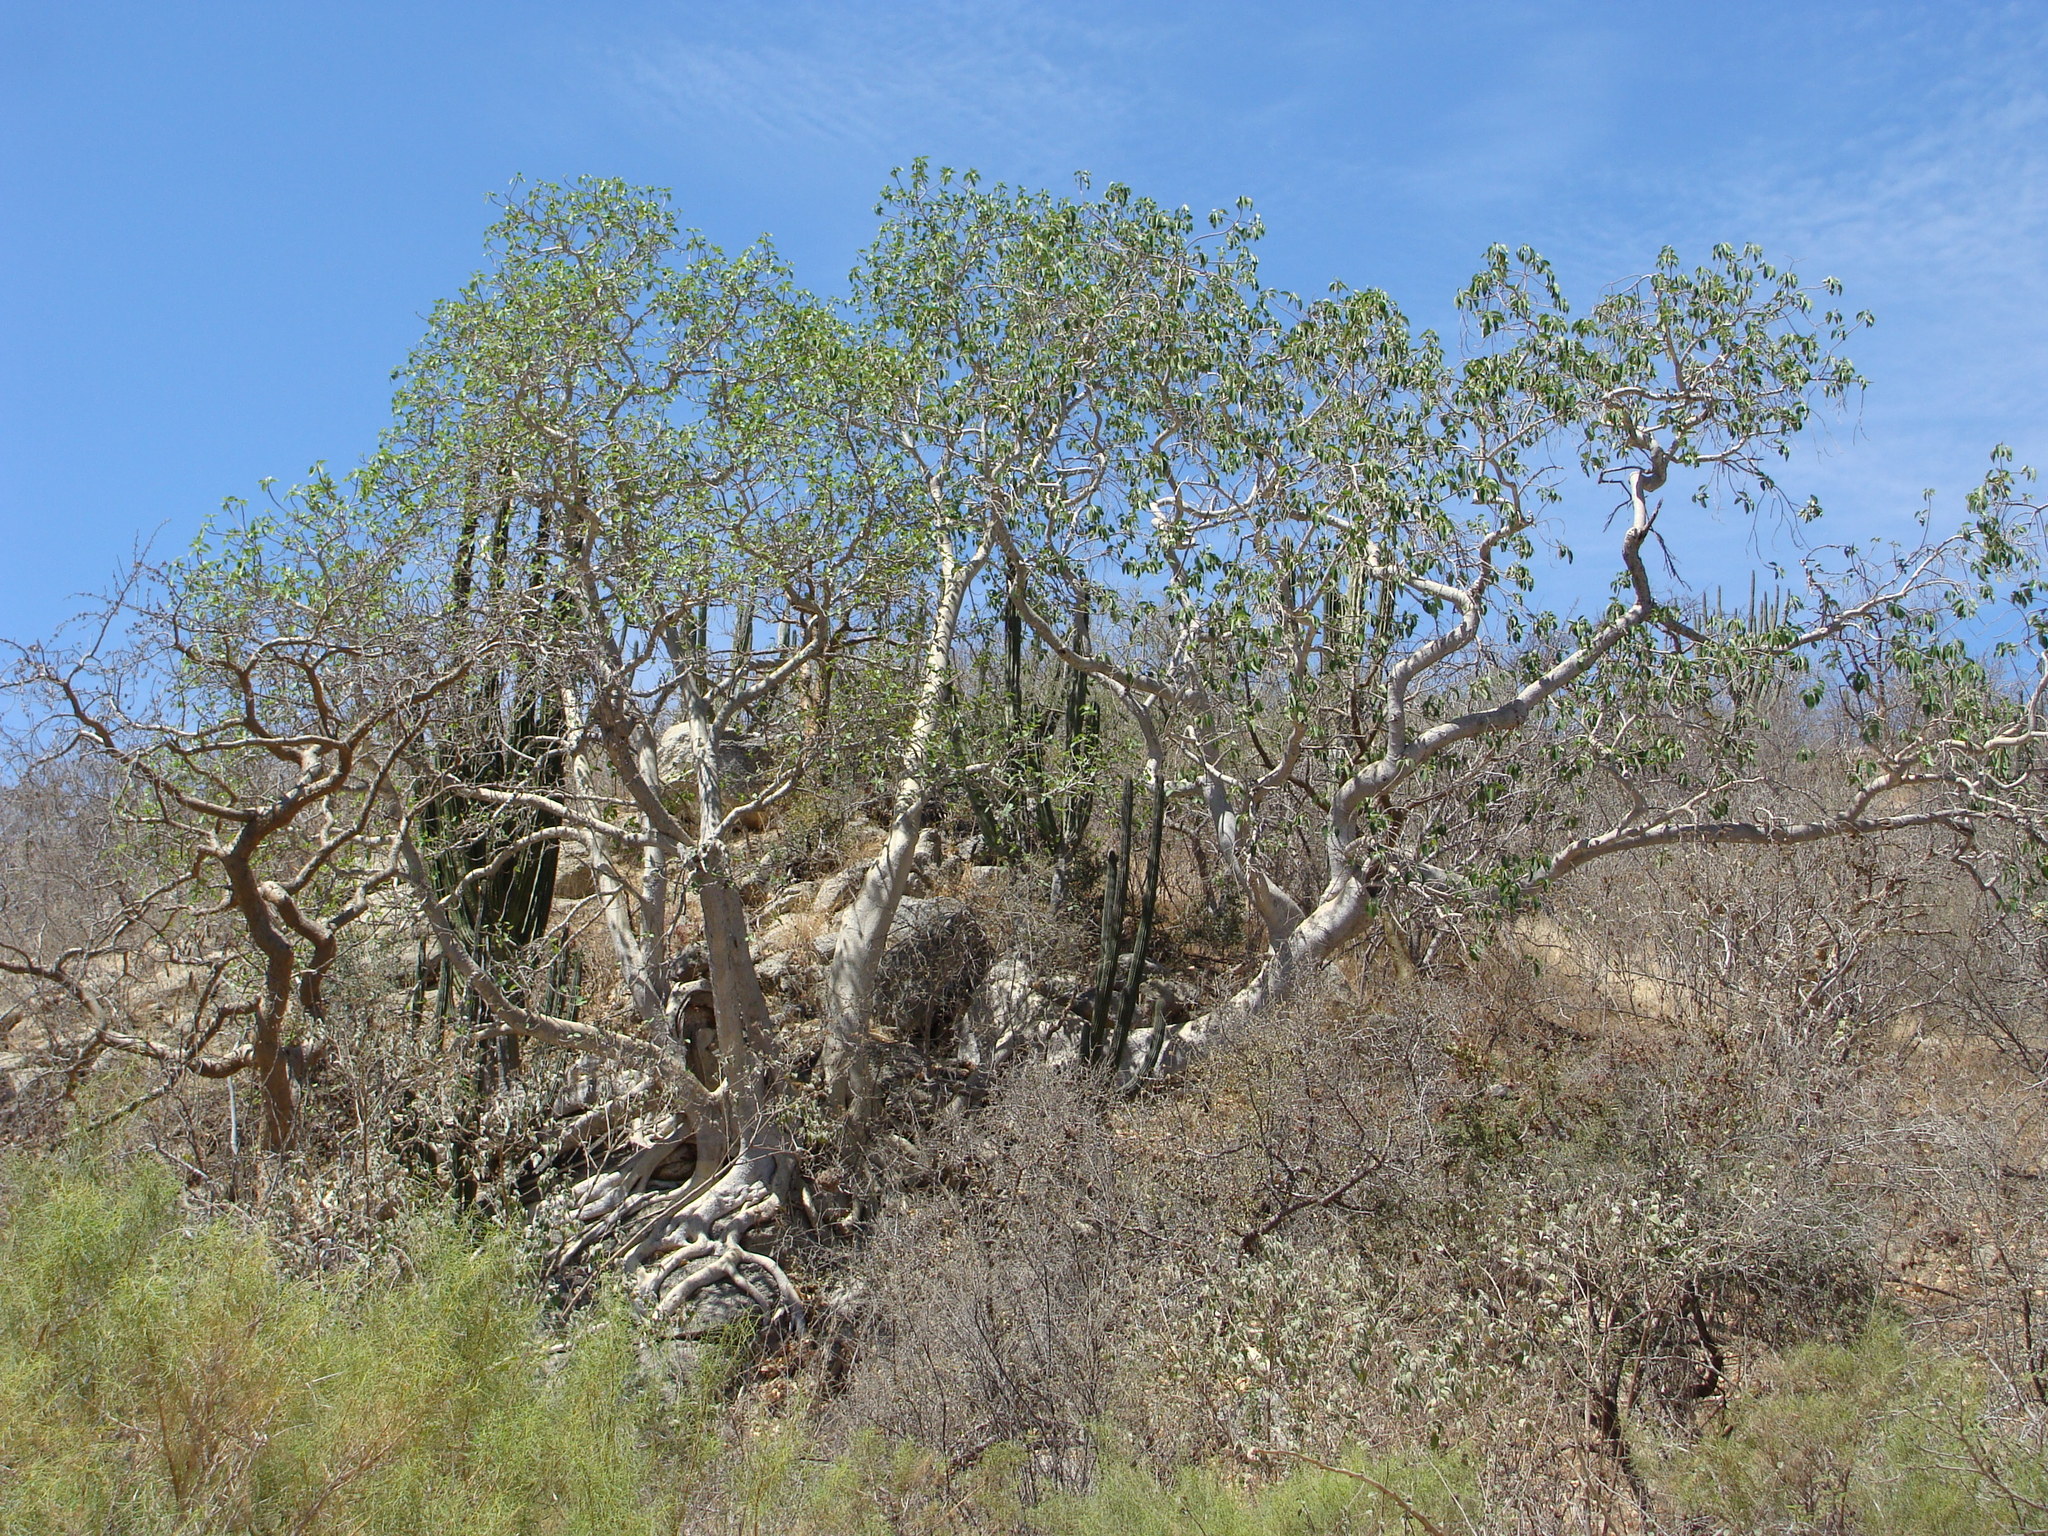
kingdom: Plantae
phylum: Tracheophyta
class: Magnoliopsida
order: Rosales
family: Moraceae
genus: Ficus
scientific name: Ficus petiolaris
